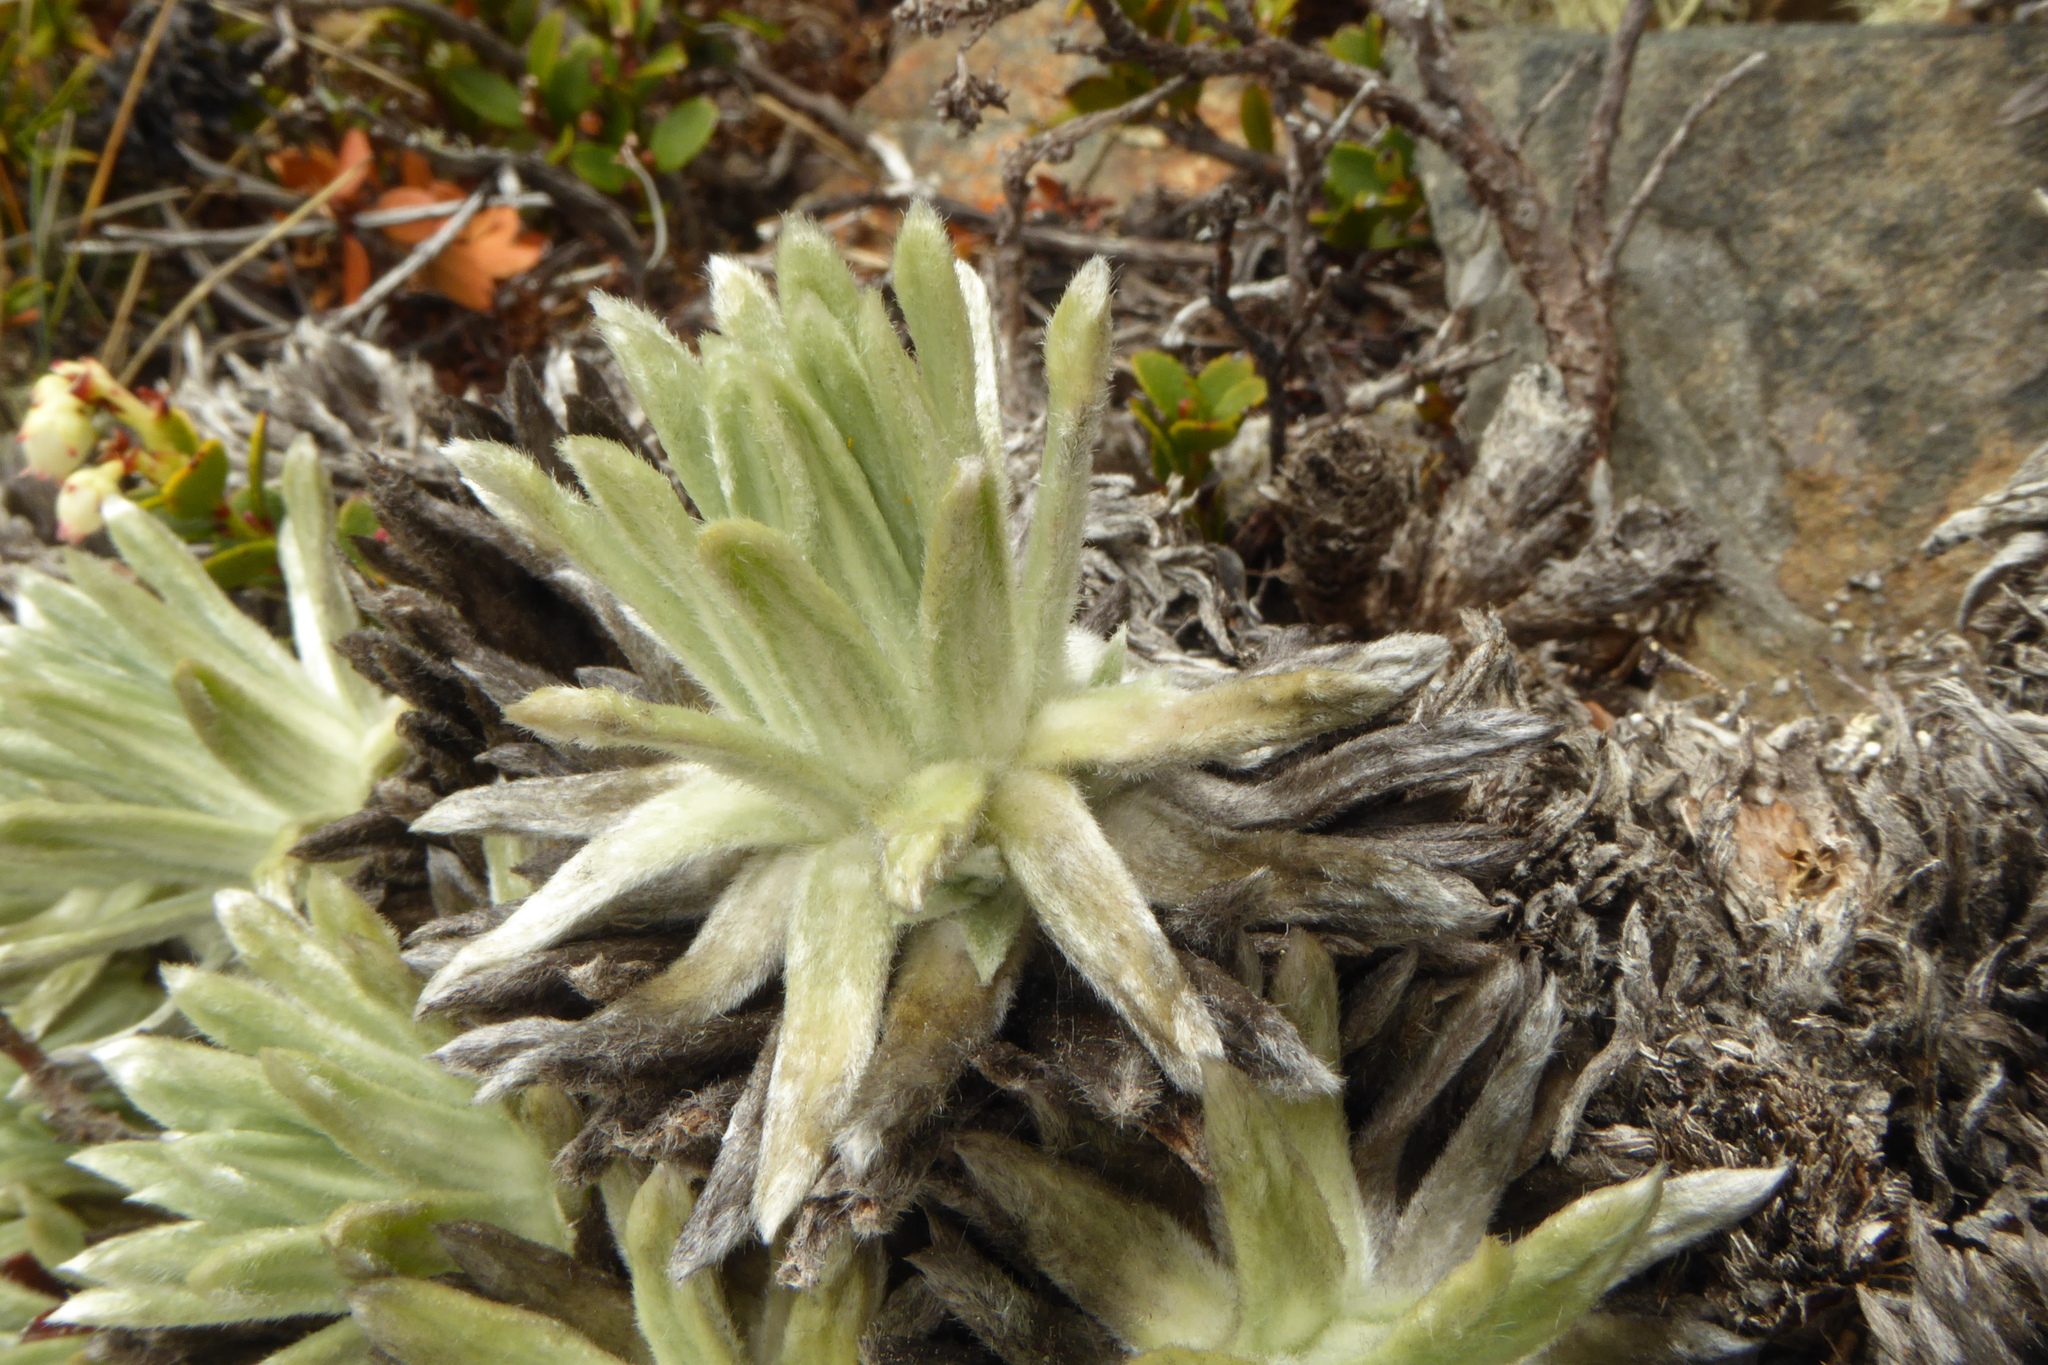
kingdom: Plantae
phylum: Tracheophyta
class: Magnoliopsida
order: Asterales
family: Asteraceae
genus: Celmisia
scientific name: Celmisia macmahonii
